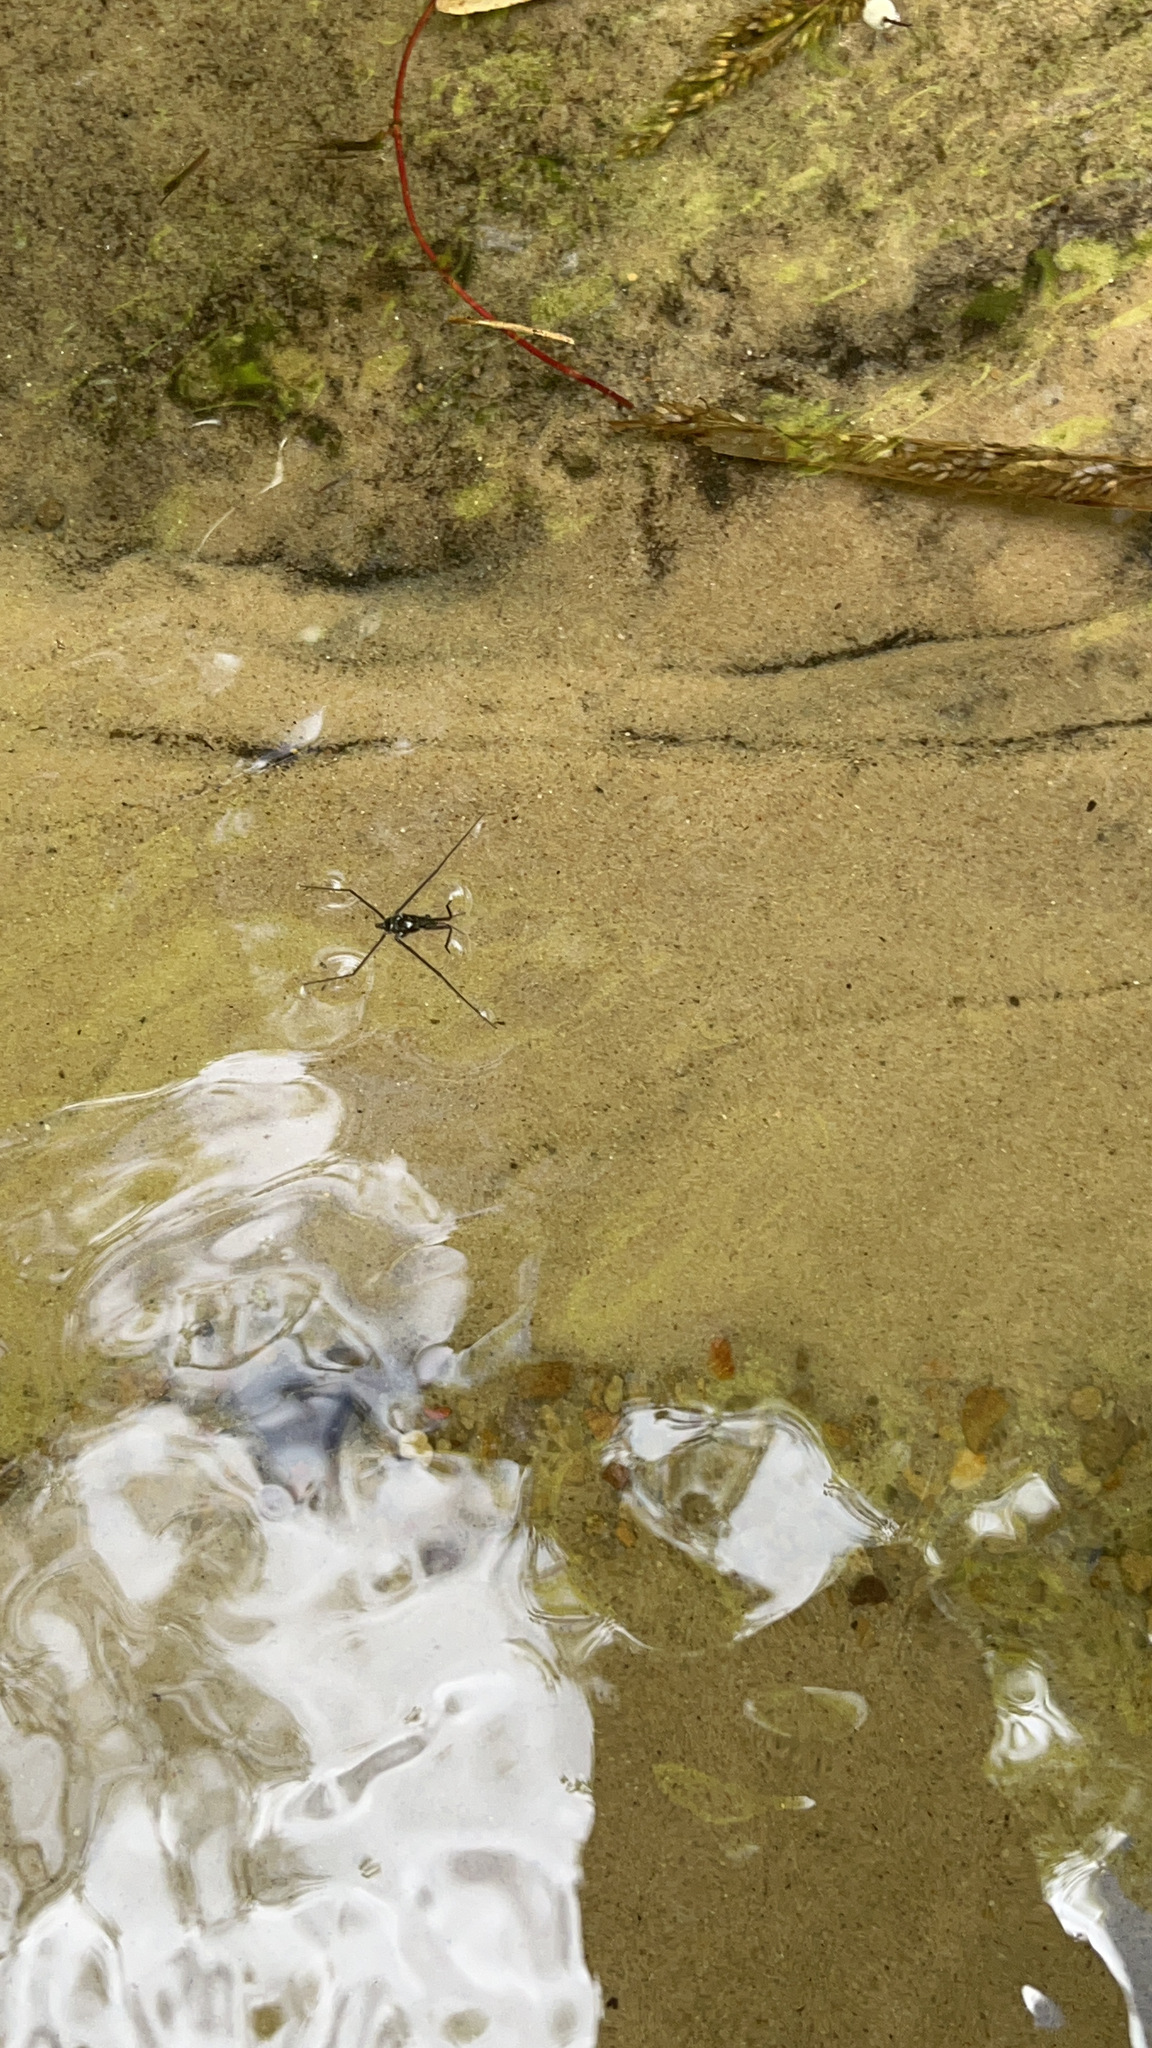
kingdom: Animalia
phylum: Arthropoda
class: Insecta
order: Hemiptera
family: Gerridae
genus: Aquarius
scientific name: Aquarius remigis
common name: Common water strider
